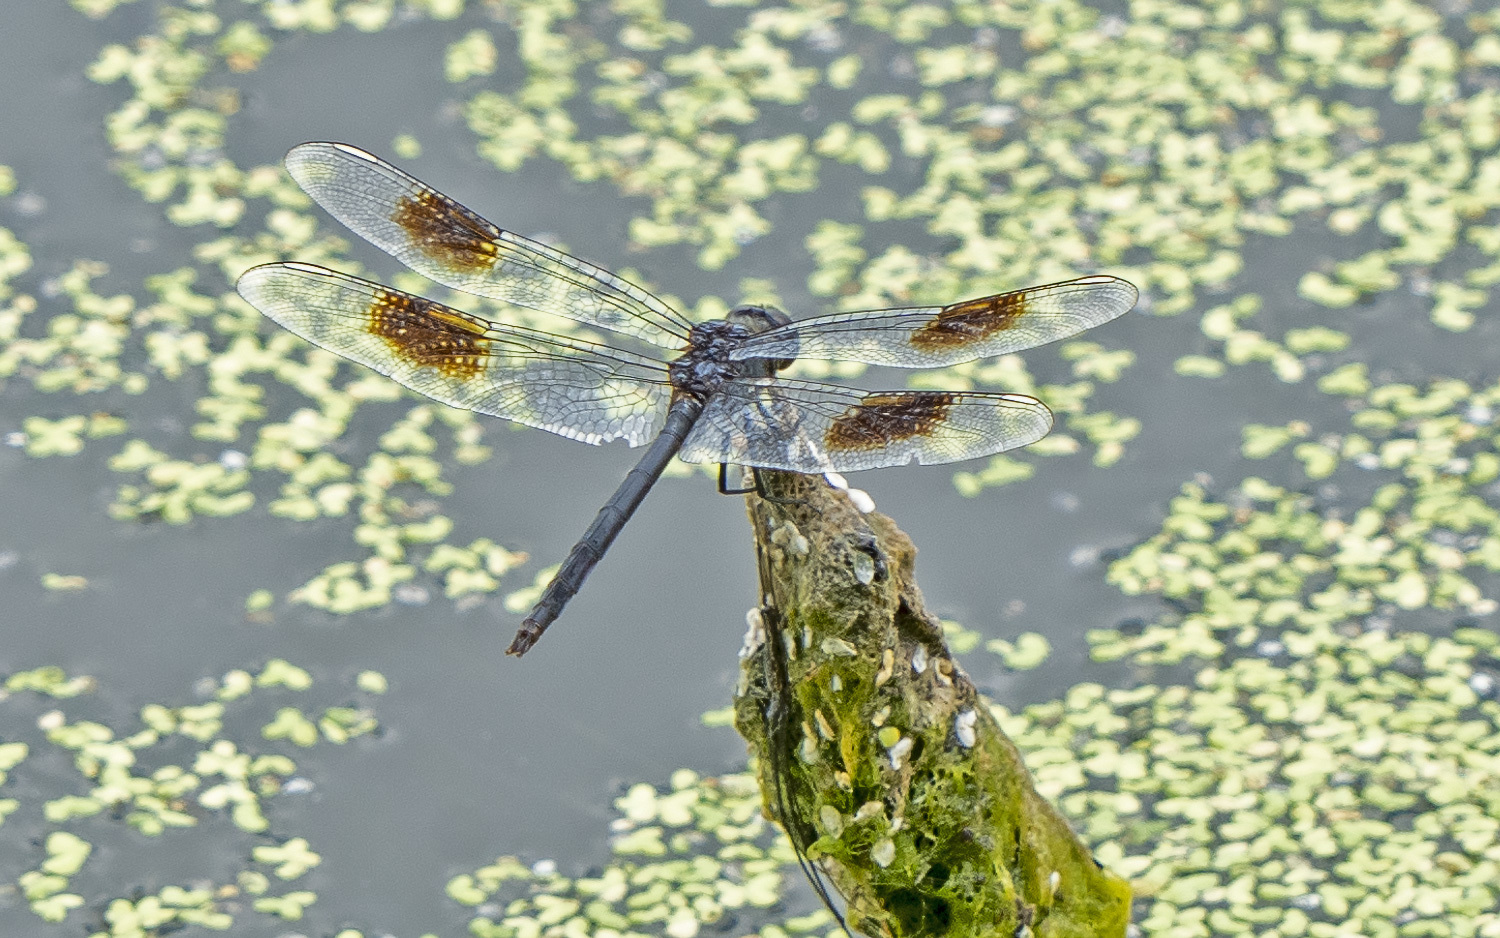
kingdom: Animalia
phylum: Arthropoda
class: Insecta
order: Odonata
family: Libellulidae
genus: Brachymesia
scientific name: Brachymesia gravida
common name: Four-spotted pennant
